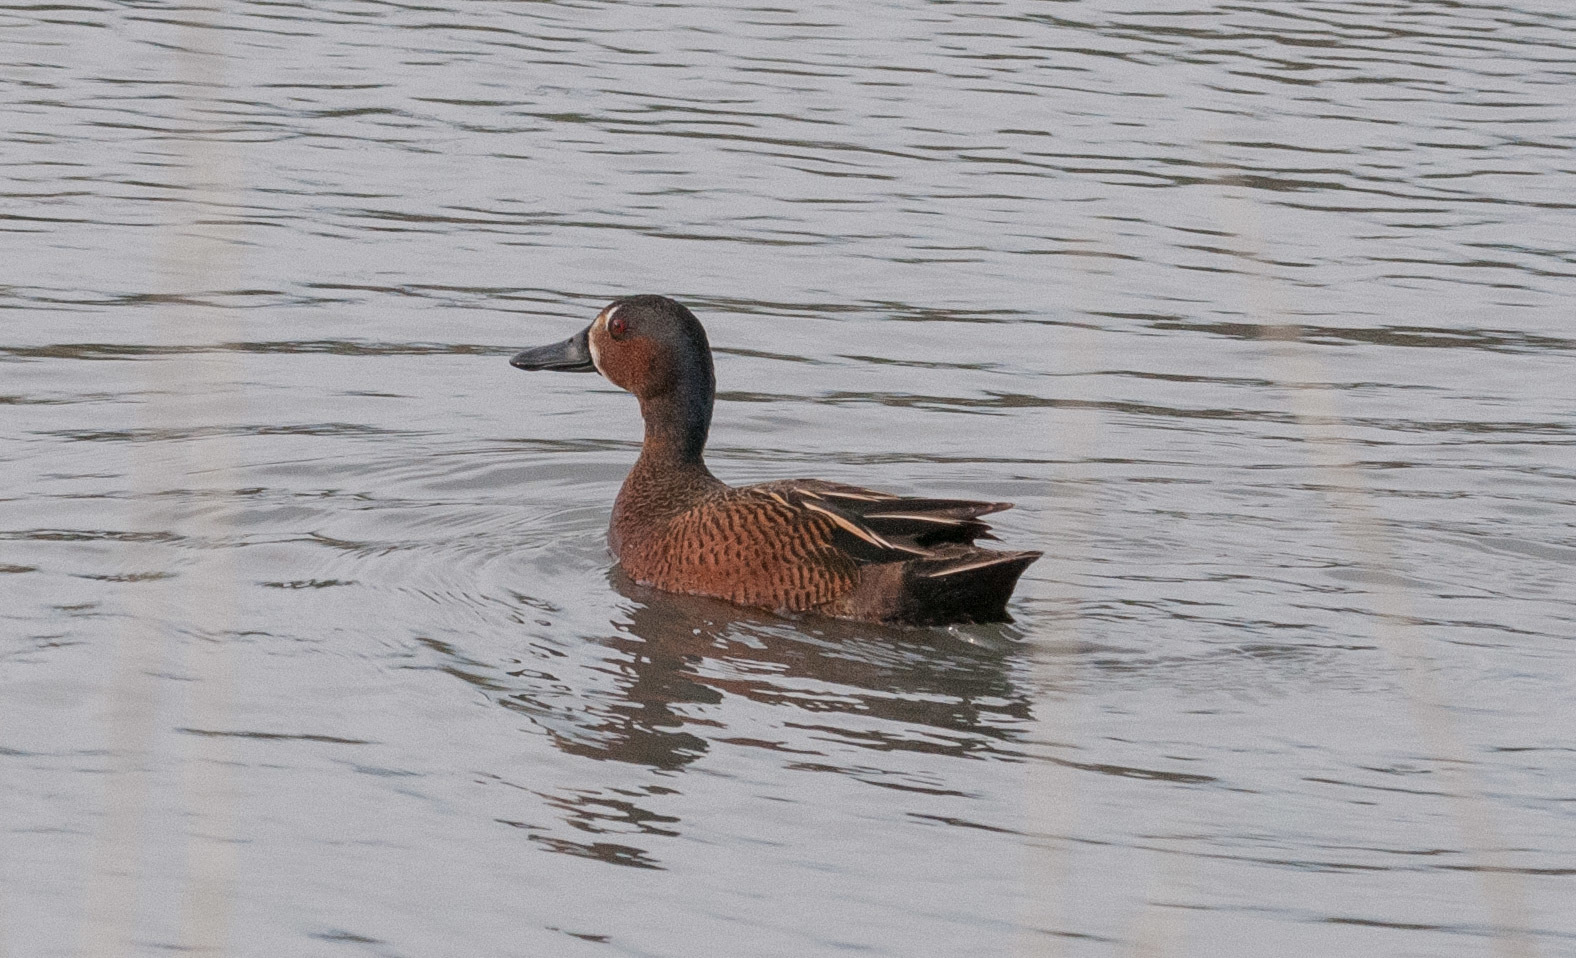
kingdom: Animalia
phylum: Chordata
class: Aves
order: Anseriformes
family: Anatidae
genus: Spatula
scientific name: Spatula
